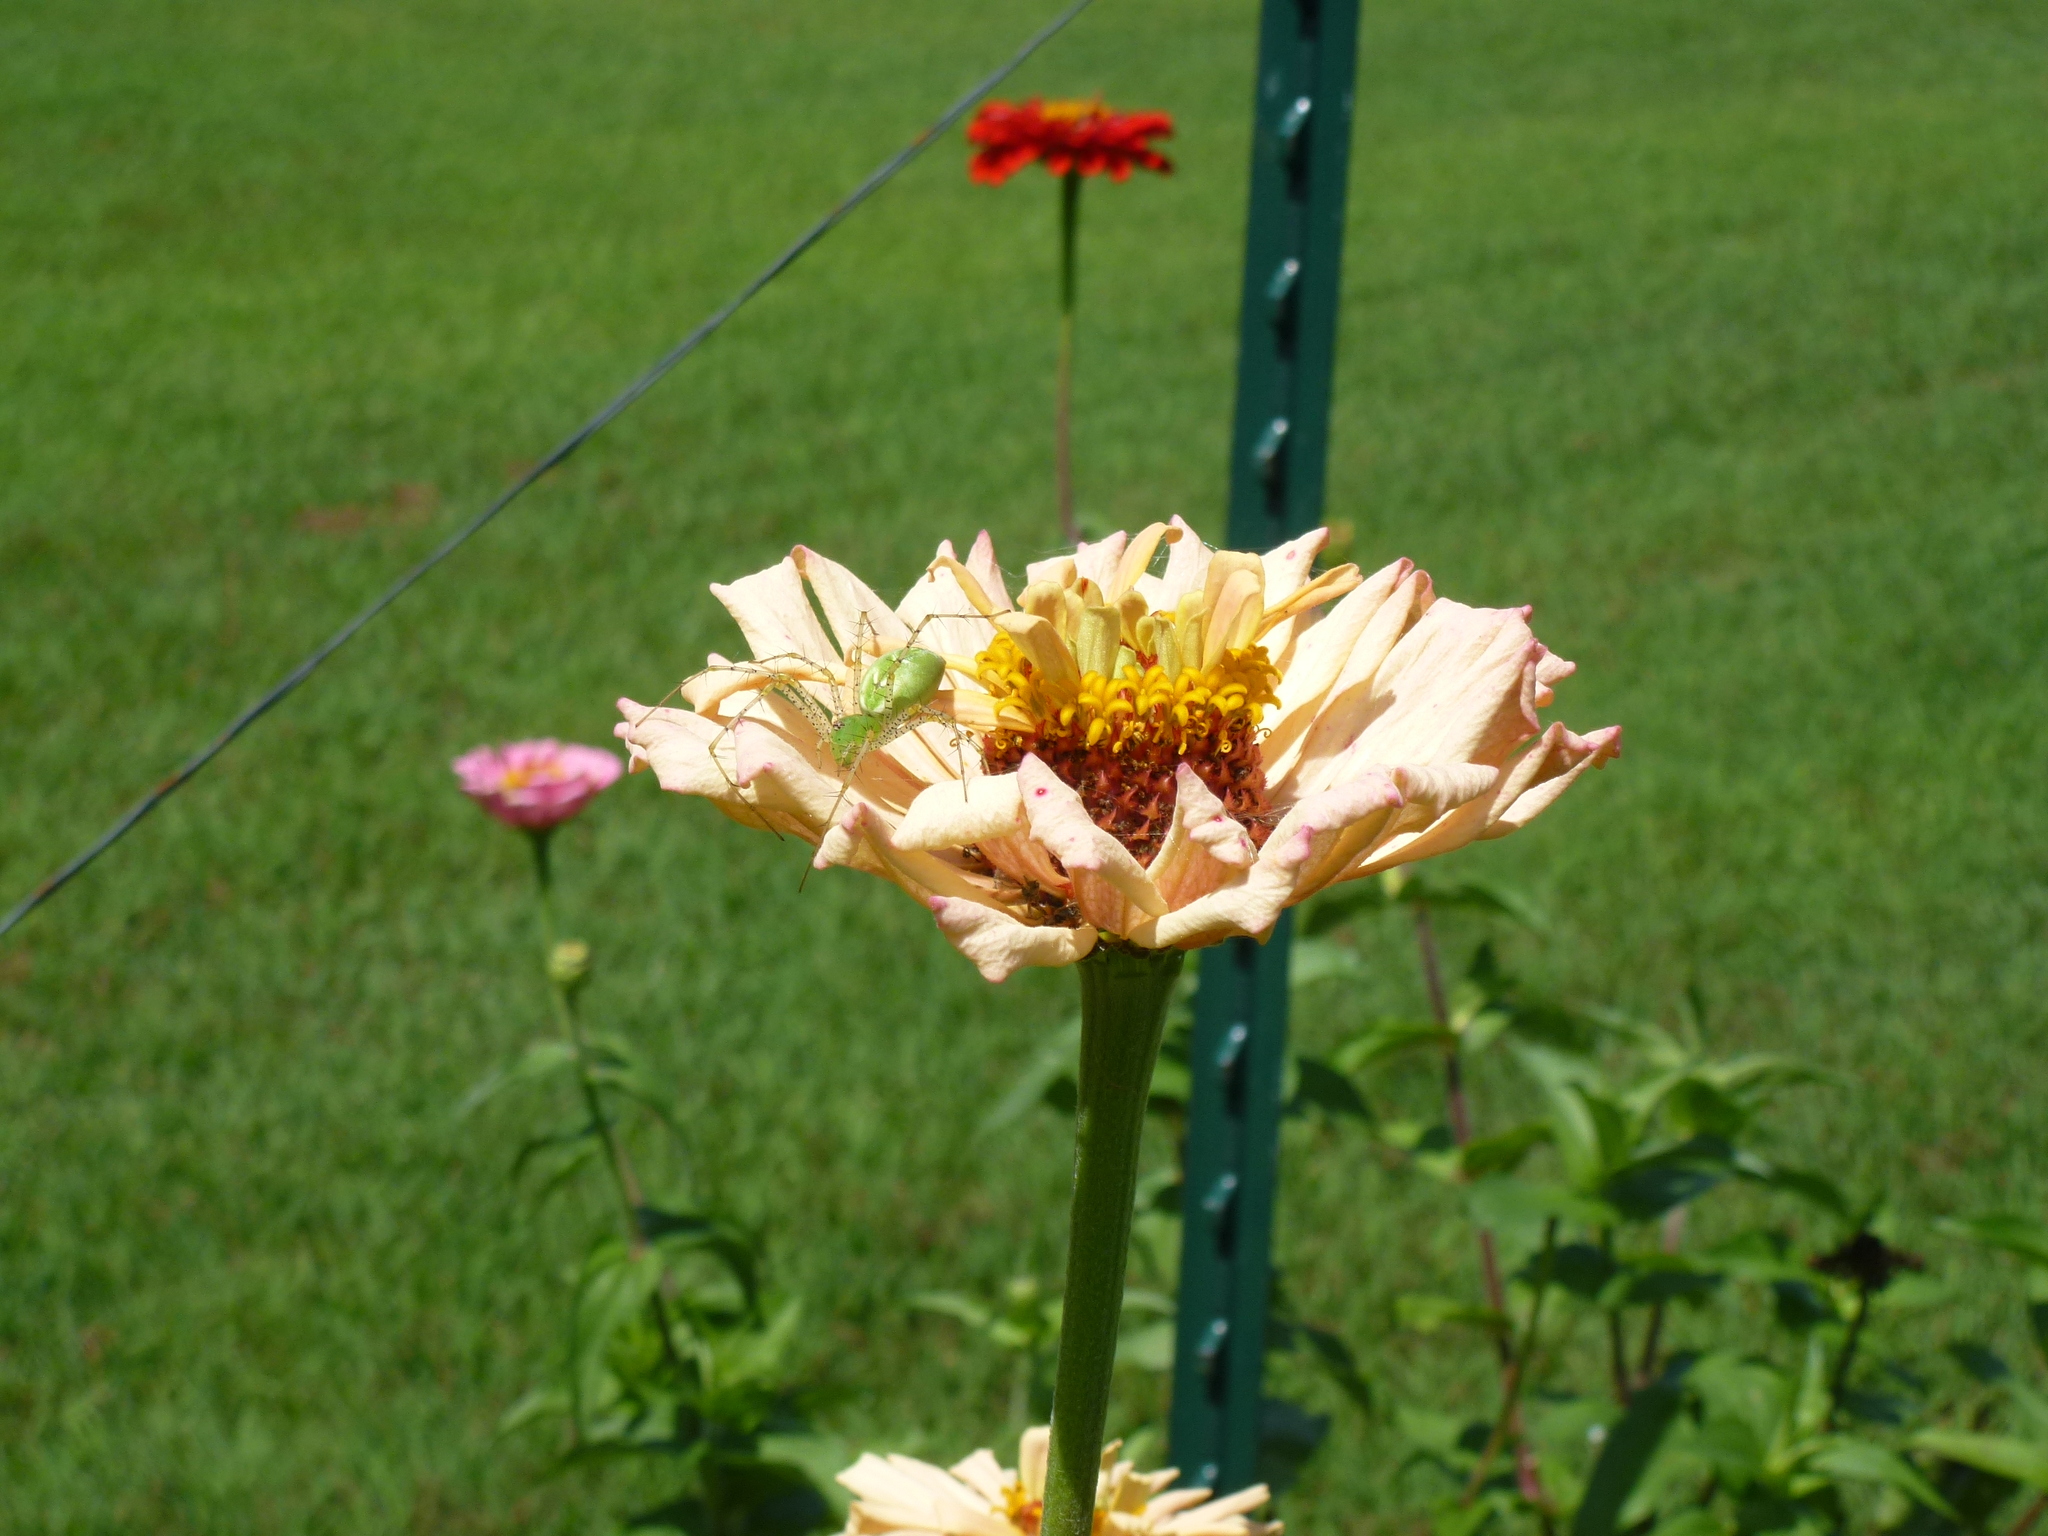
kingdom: Animalia
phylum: Arthropoda
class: Arachnida
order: Araneae
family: Oxyopidae
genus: Peucetia
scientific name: Peucetia viridans
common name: Lynx spiders
